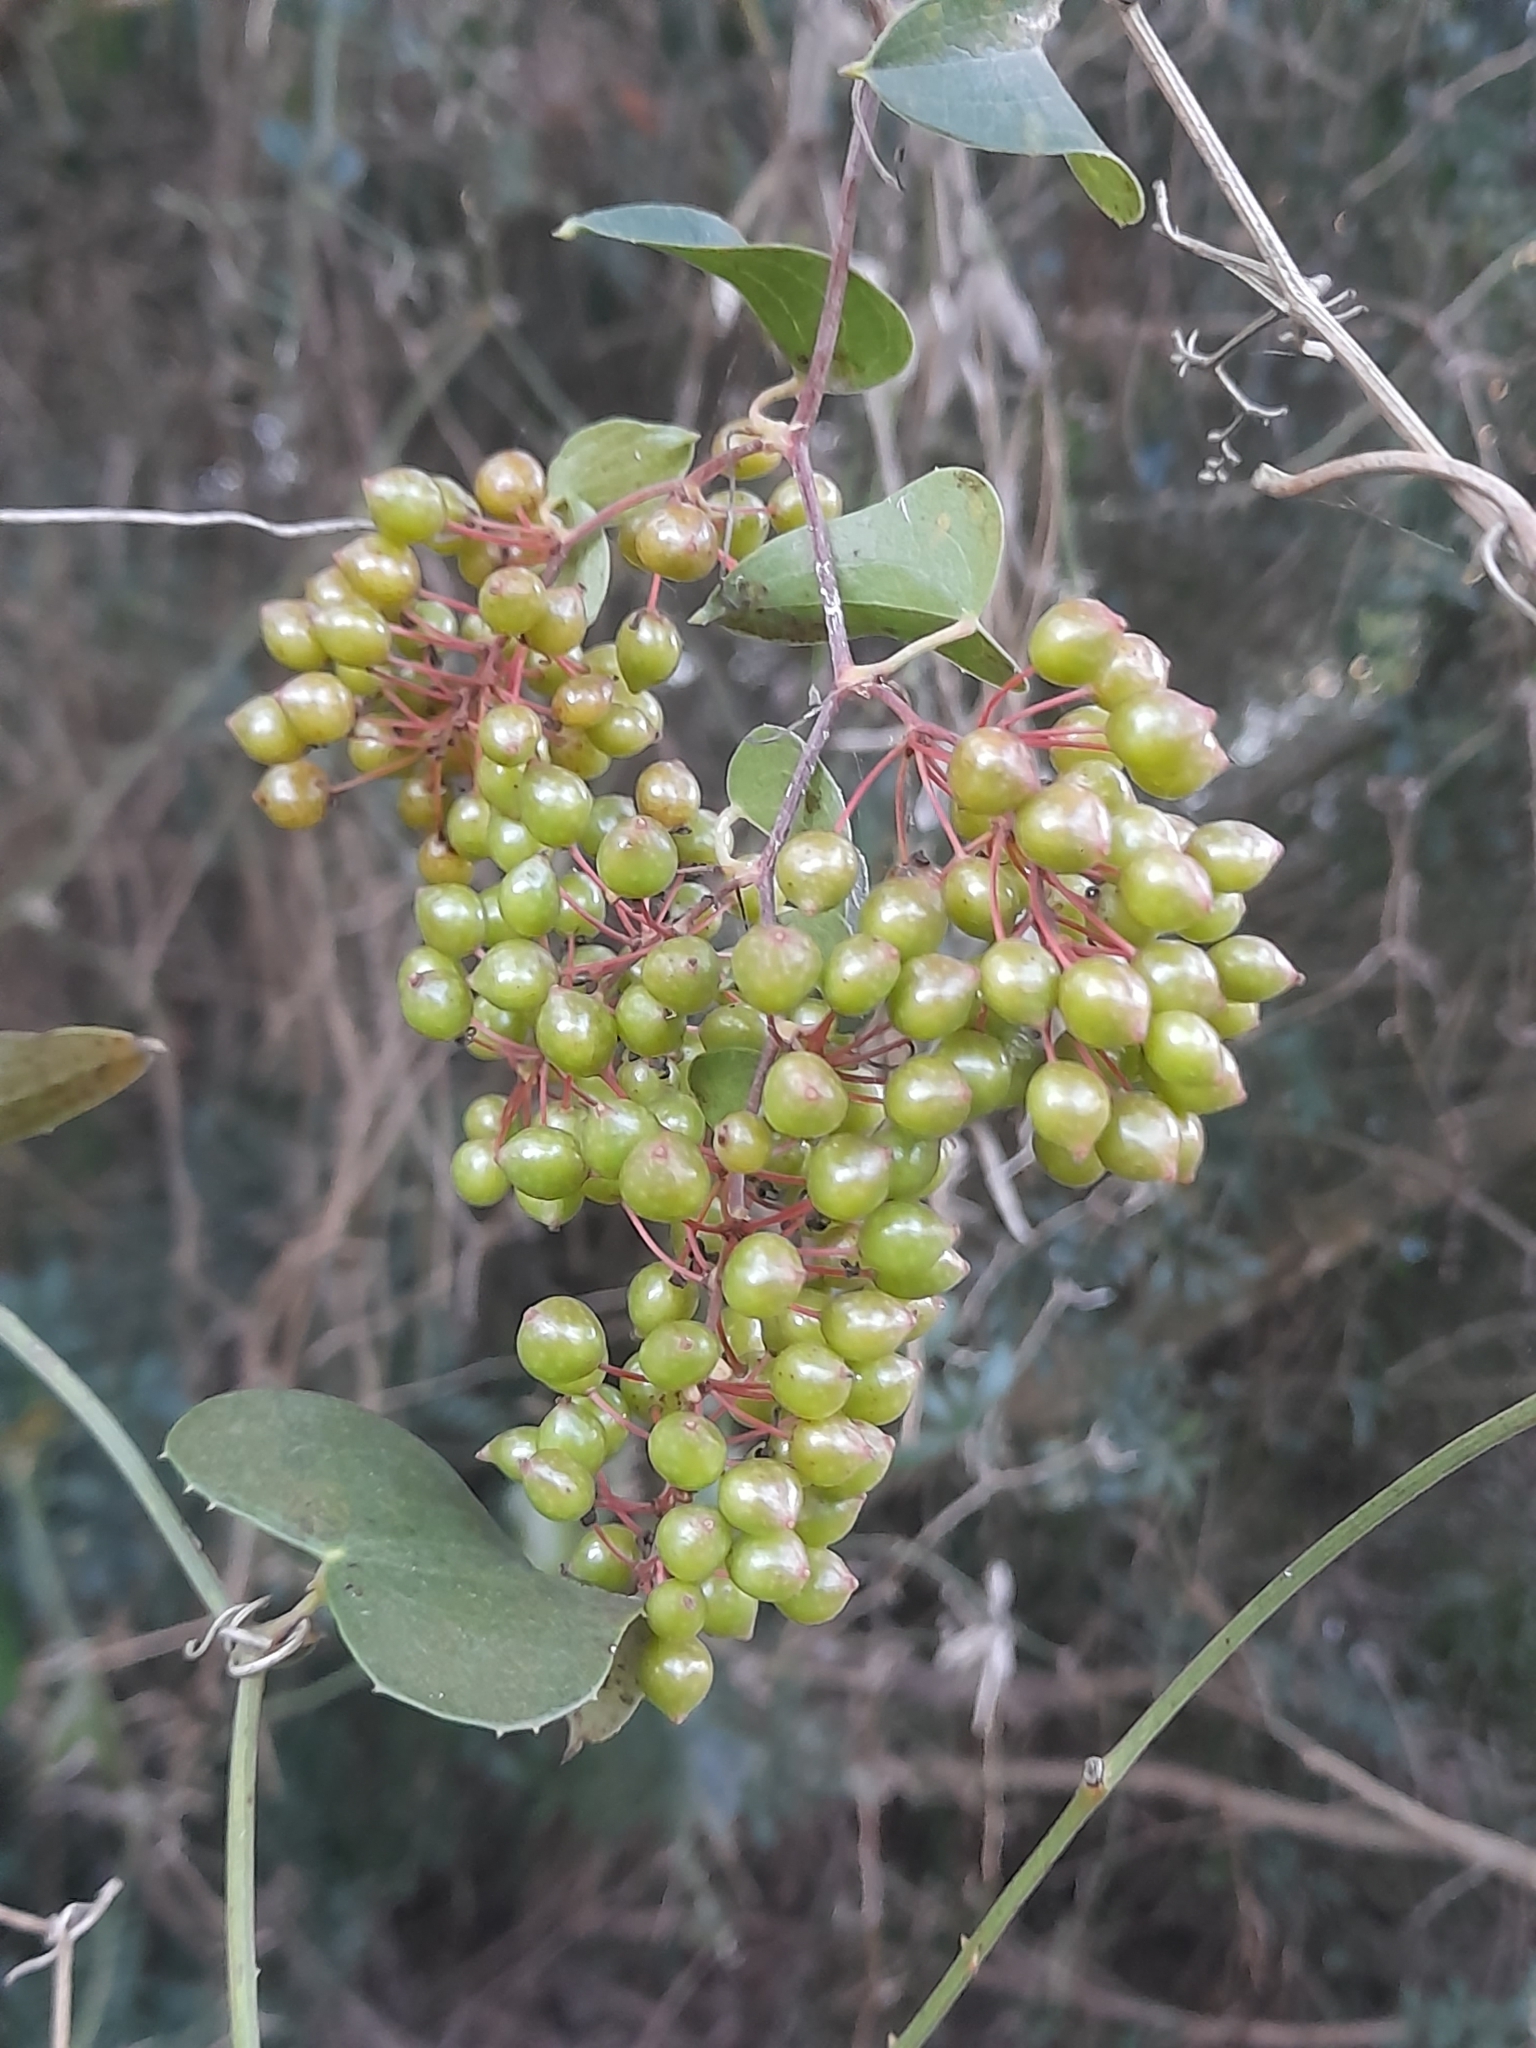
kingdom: Plantae
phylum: Tracheophyta
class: Liliopsida
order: Liliales
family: Smilacaceae
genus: Smilax
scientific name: Smilax aspera
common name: Common smilax
